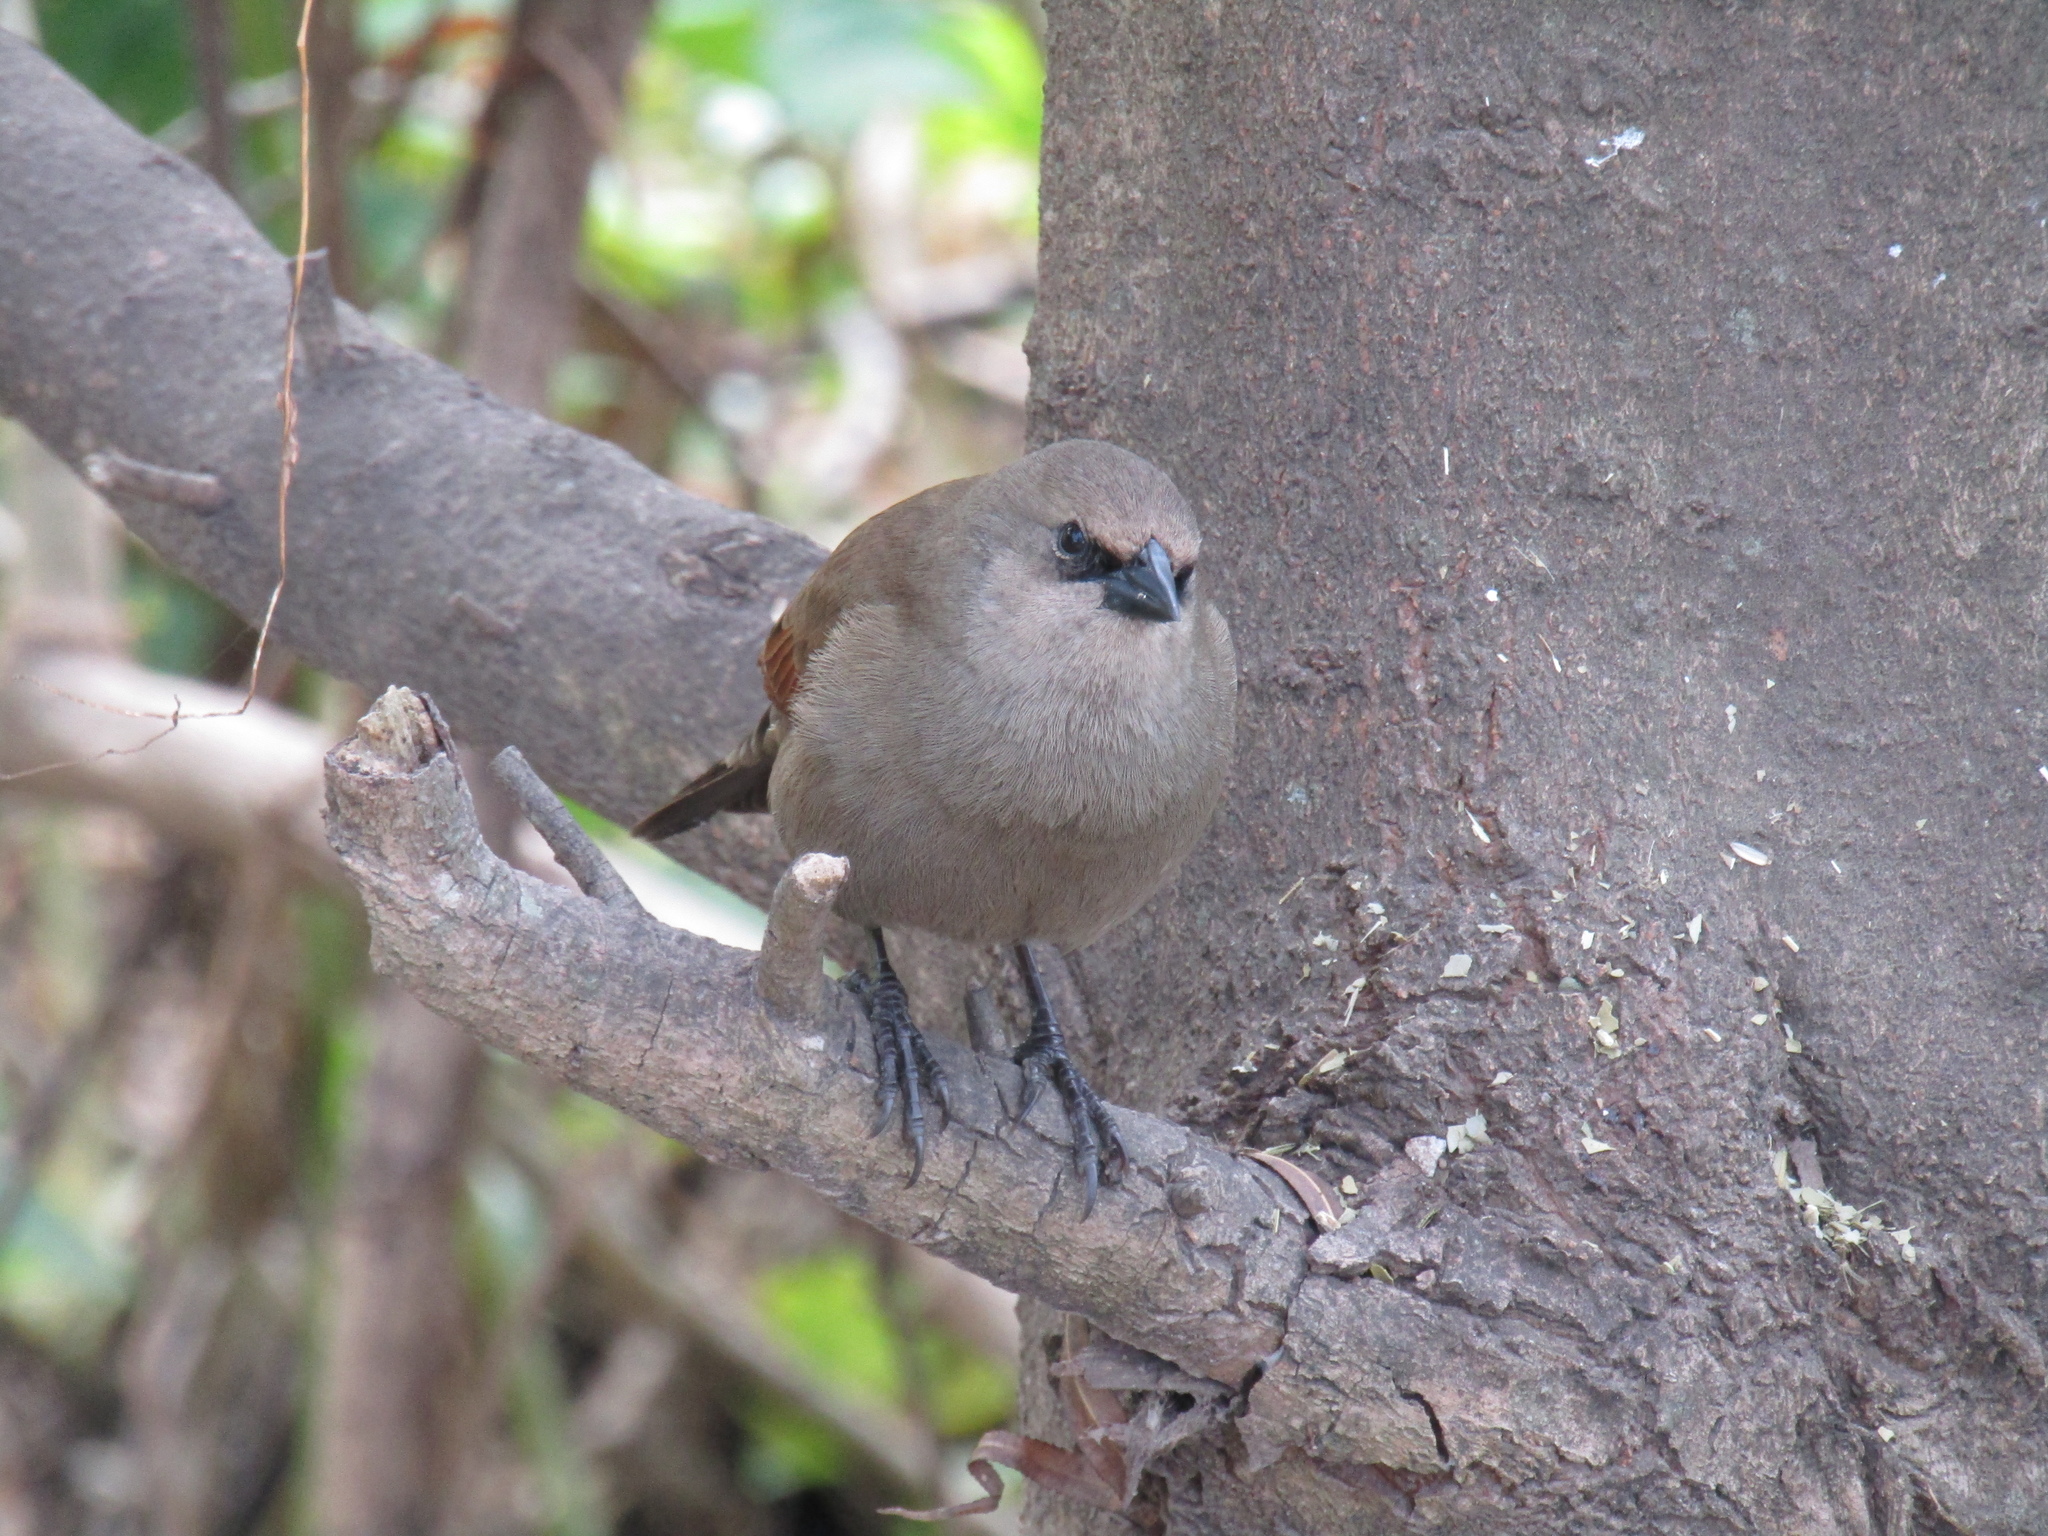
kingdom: Animalia
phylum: Chordata
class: Aves
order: Passeriformes
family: Icteridae
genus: Agelaioides
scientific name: Agelaioides badius
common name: Baywing
